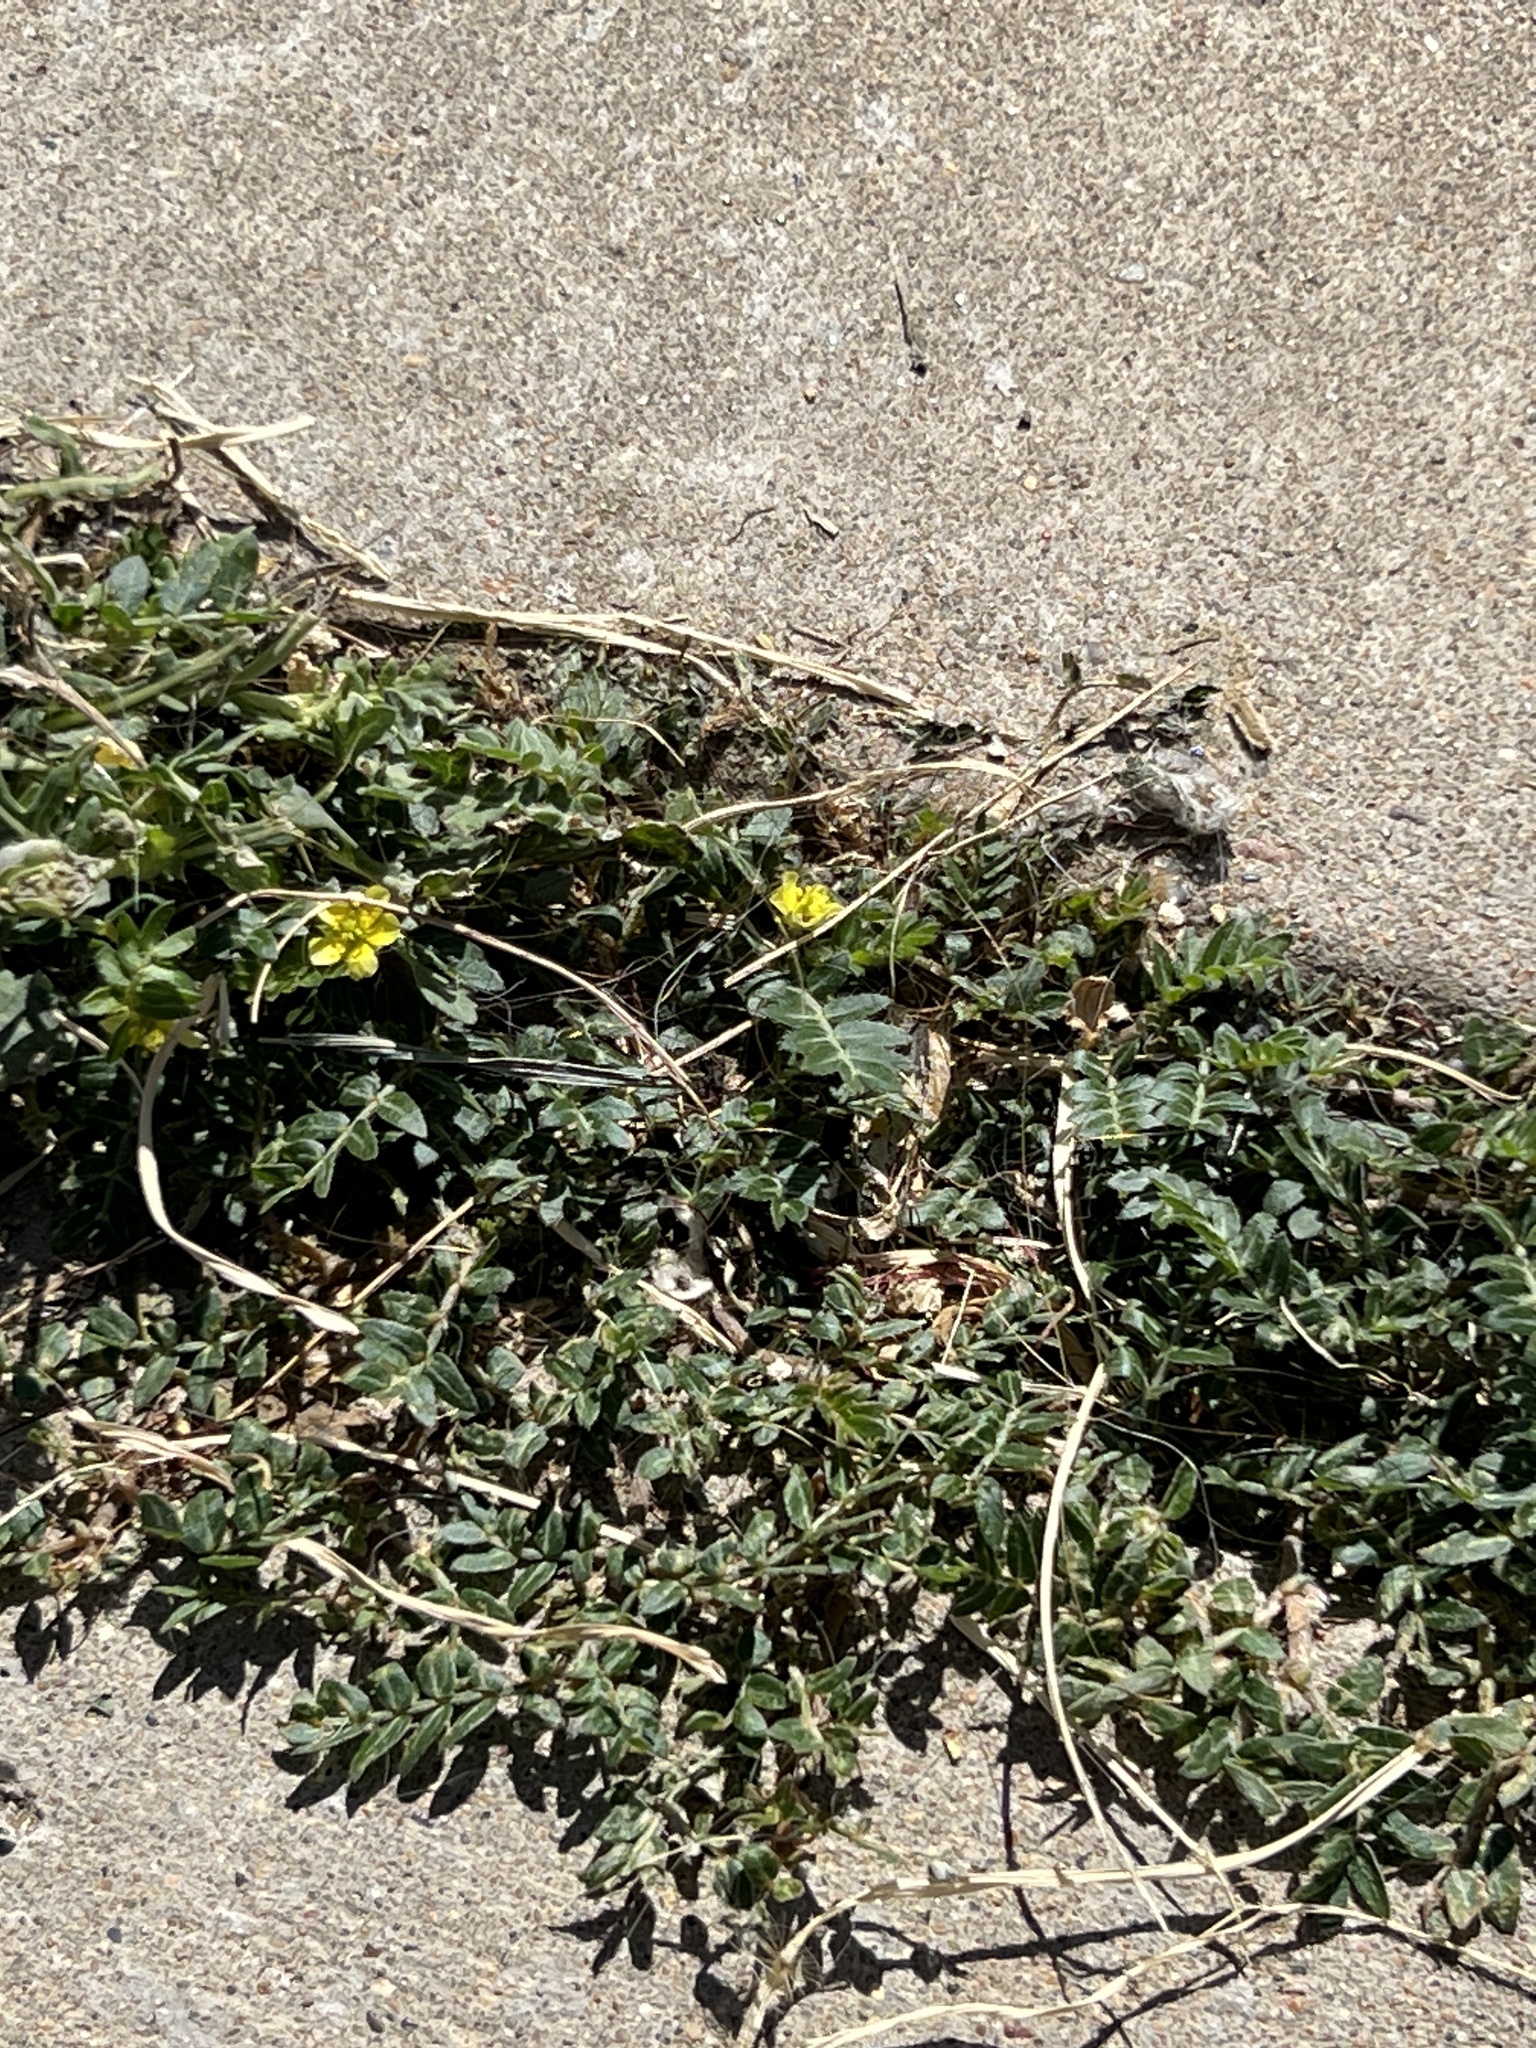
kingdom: Plantae
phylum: Tracheophyta
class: Magnoliopsida
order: Zygophyllales
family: Zygophyllaceae
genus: Tribulus
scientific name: Tribulus terrestris
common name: Puncturevine
